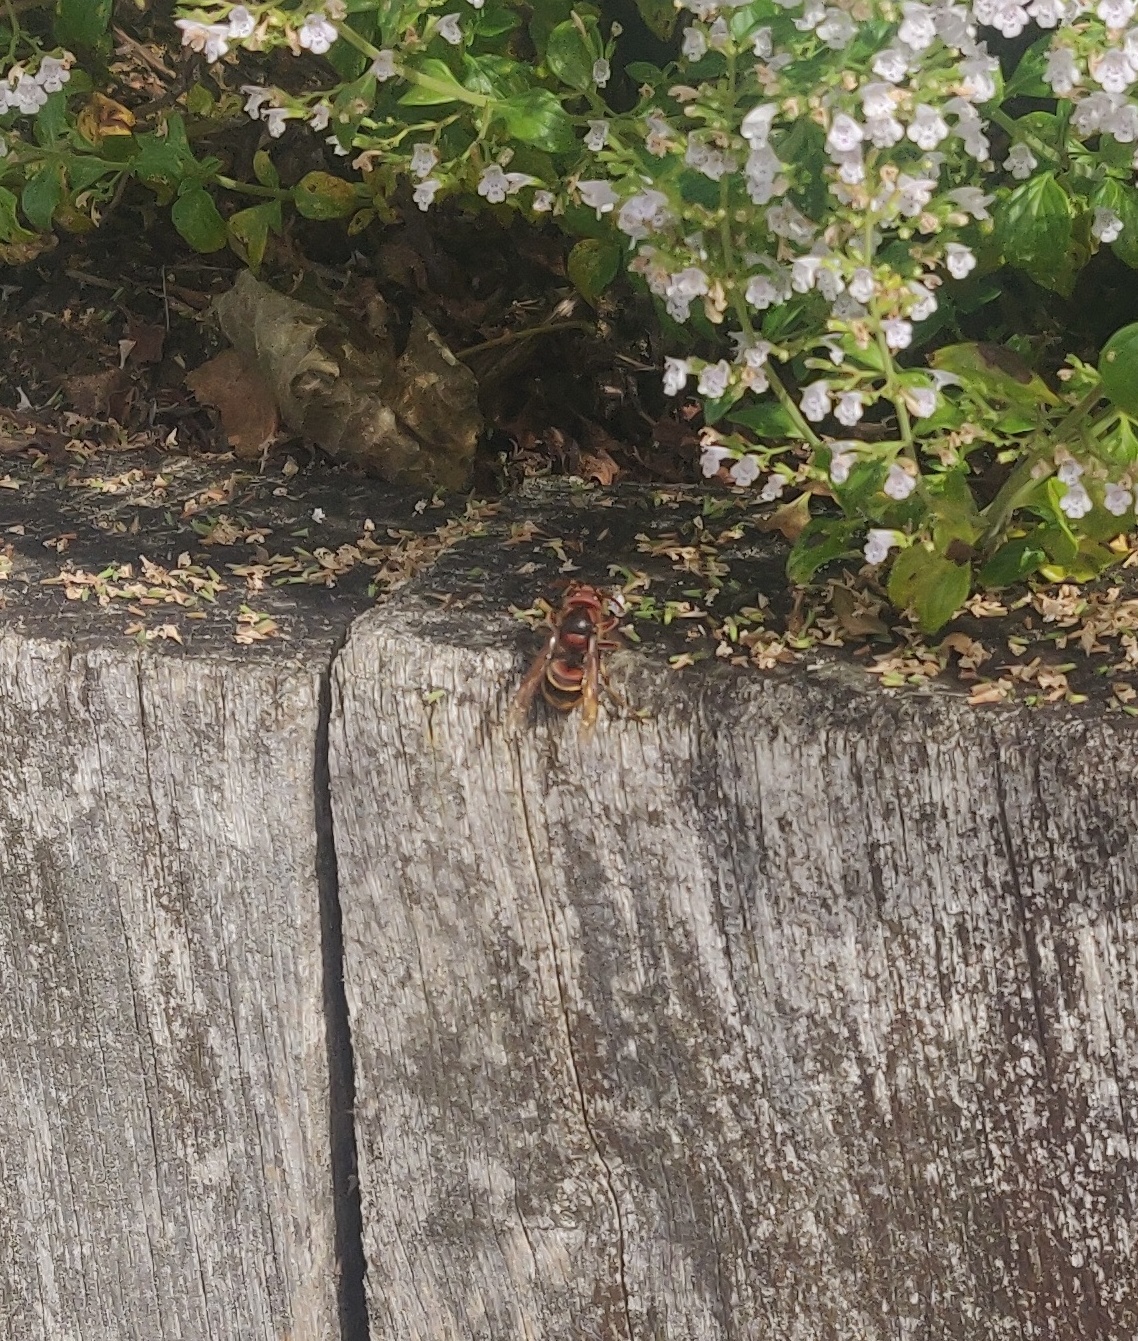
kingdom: Animalia
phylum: Arthropoda
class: Insecta
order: Hymenoptera
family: Vespidae
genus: Vespa
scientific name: Vespa crabro
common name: Hornet
